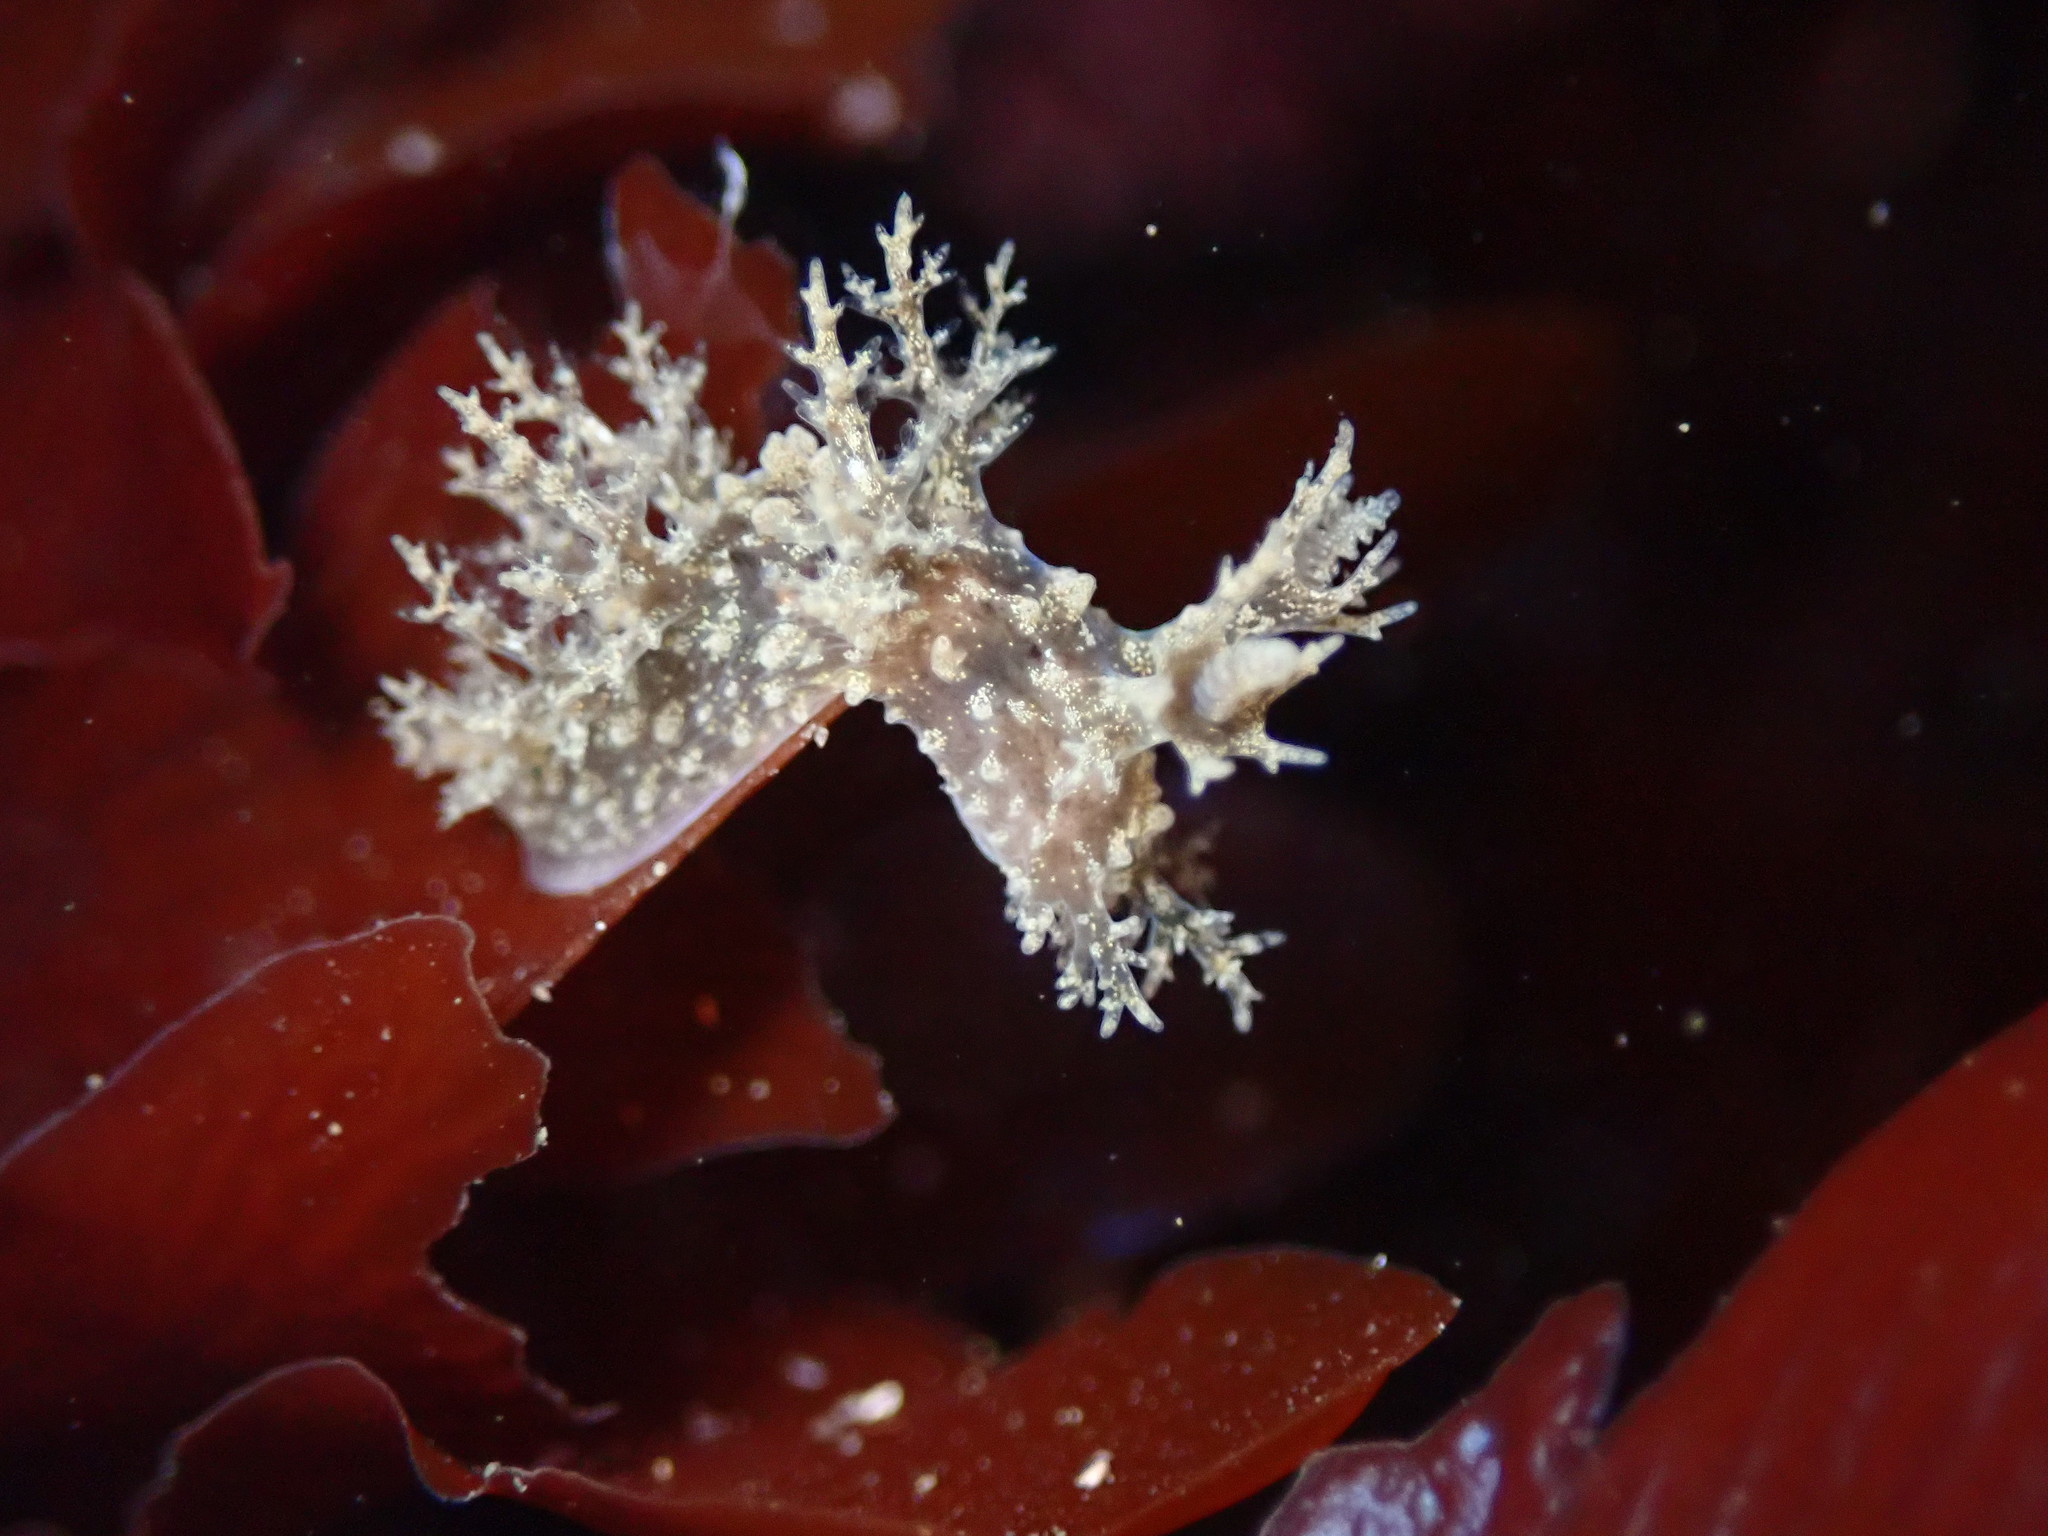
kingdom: Animalia
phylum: Mollusca
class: Gastropoda
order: Nudibranchia
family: Dendronotidae
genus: Dendronotus
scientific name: Dendronotus venustus
